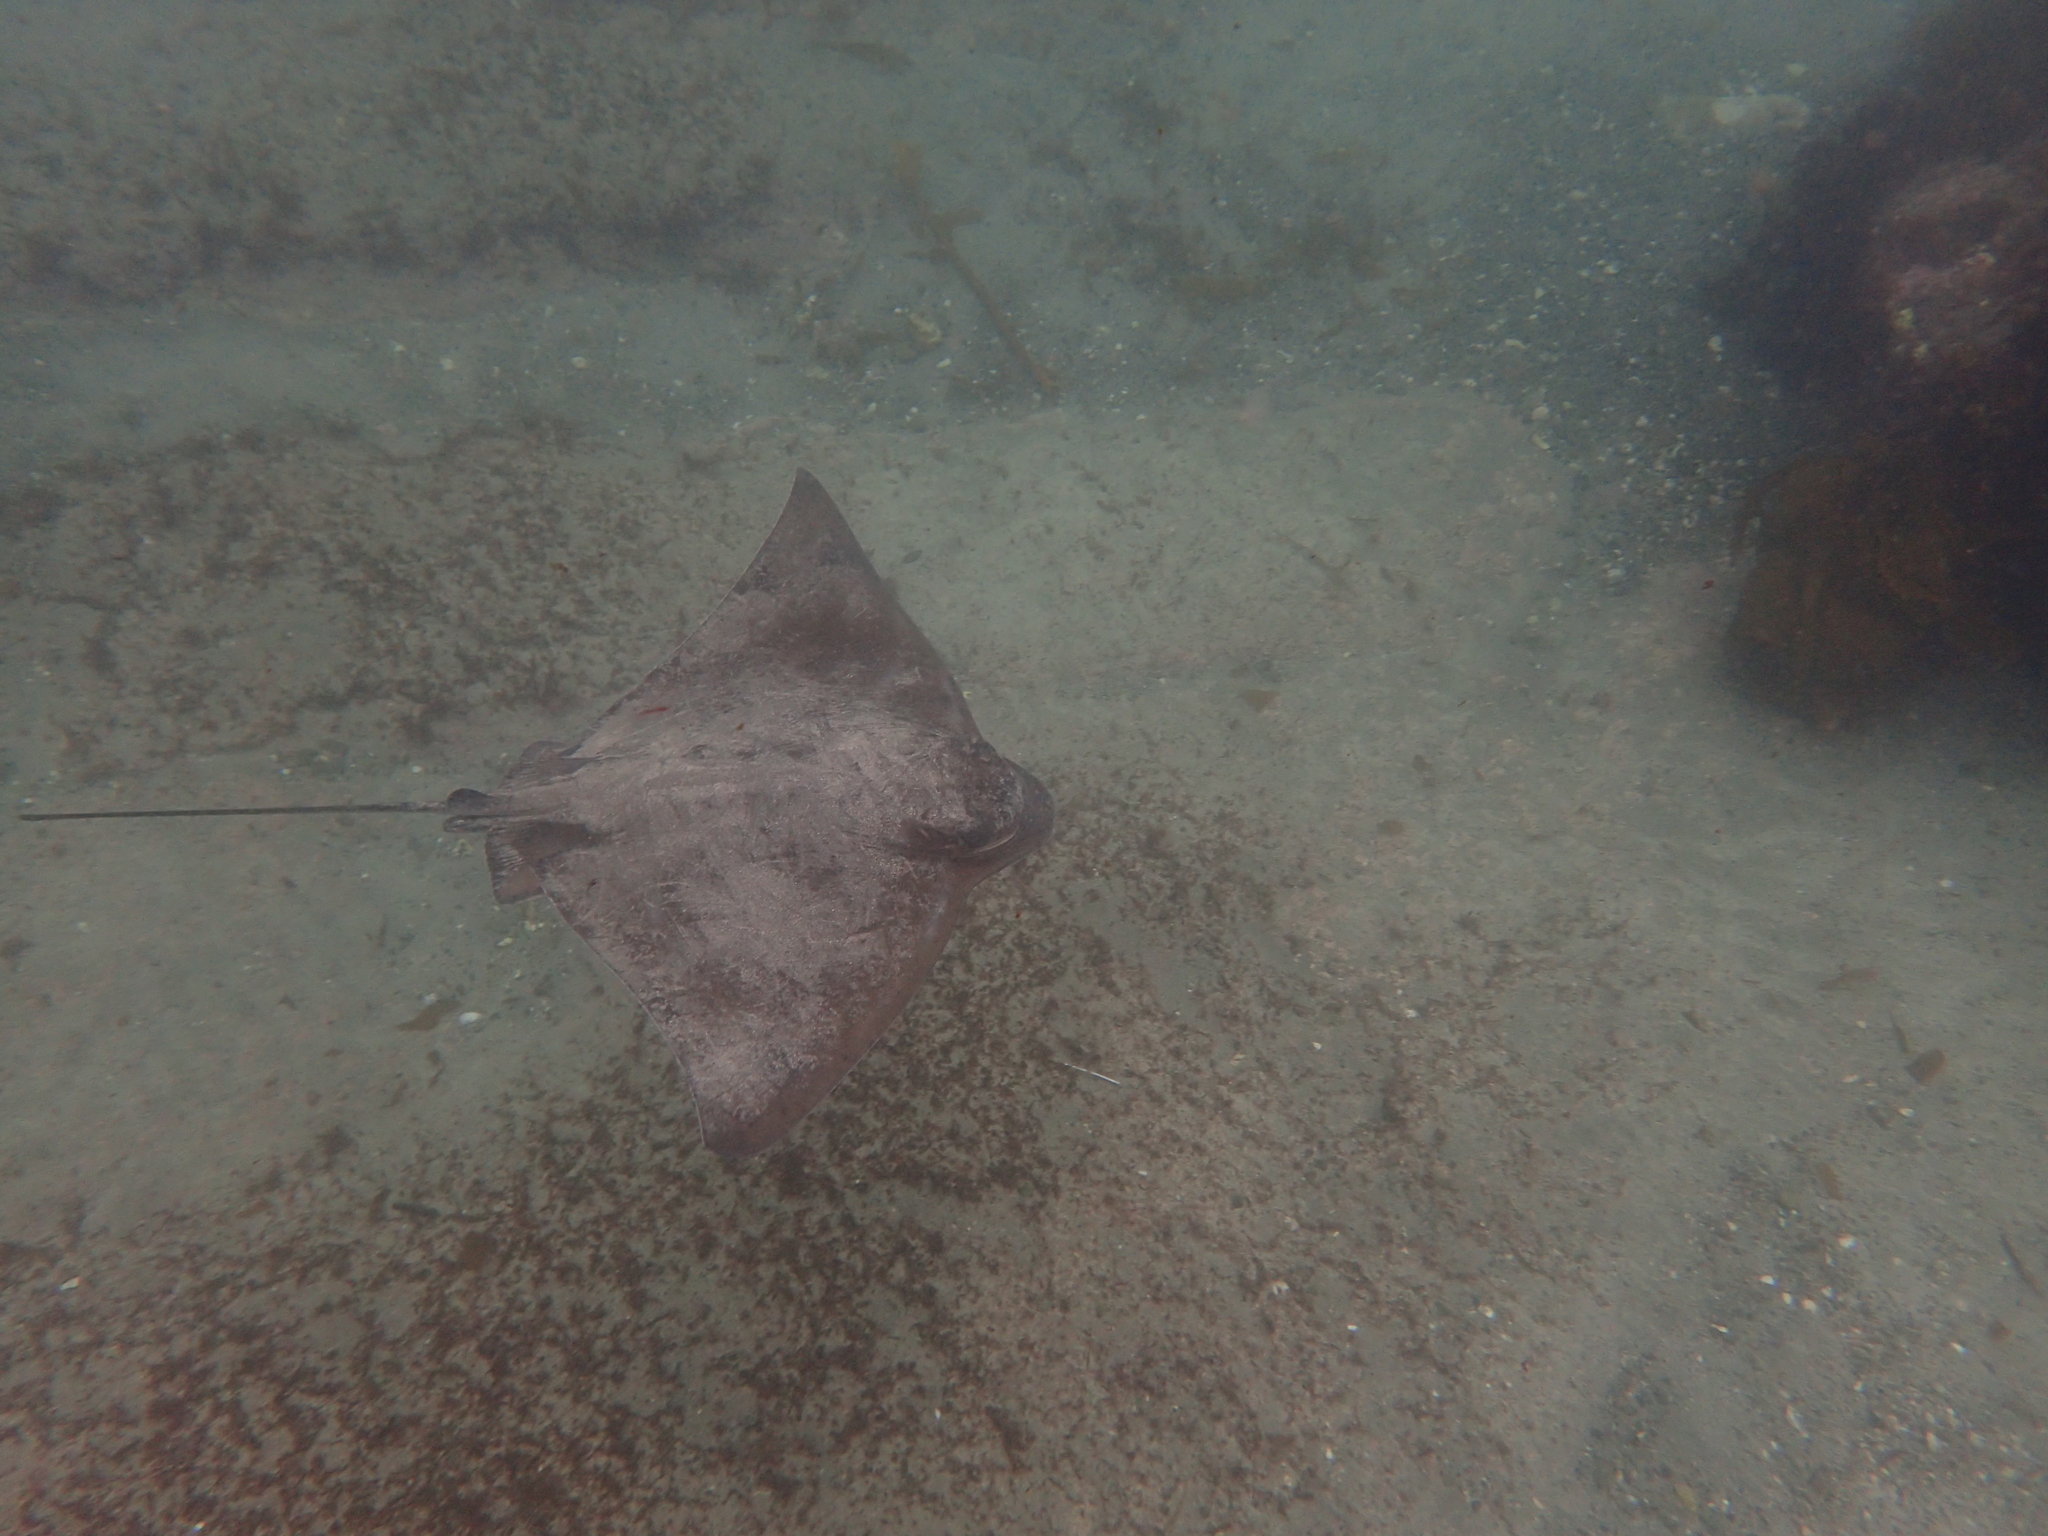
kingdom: Animalia
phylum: Chordata
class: Elasmobranchii
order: Myliobatiformes
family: Myliobatidae
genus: Myliobatis
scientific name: Myliobatis tenuicaudatus
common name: Eagle ray
